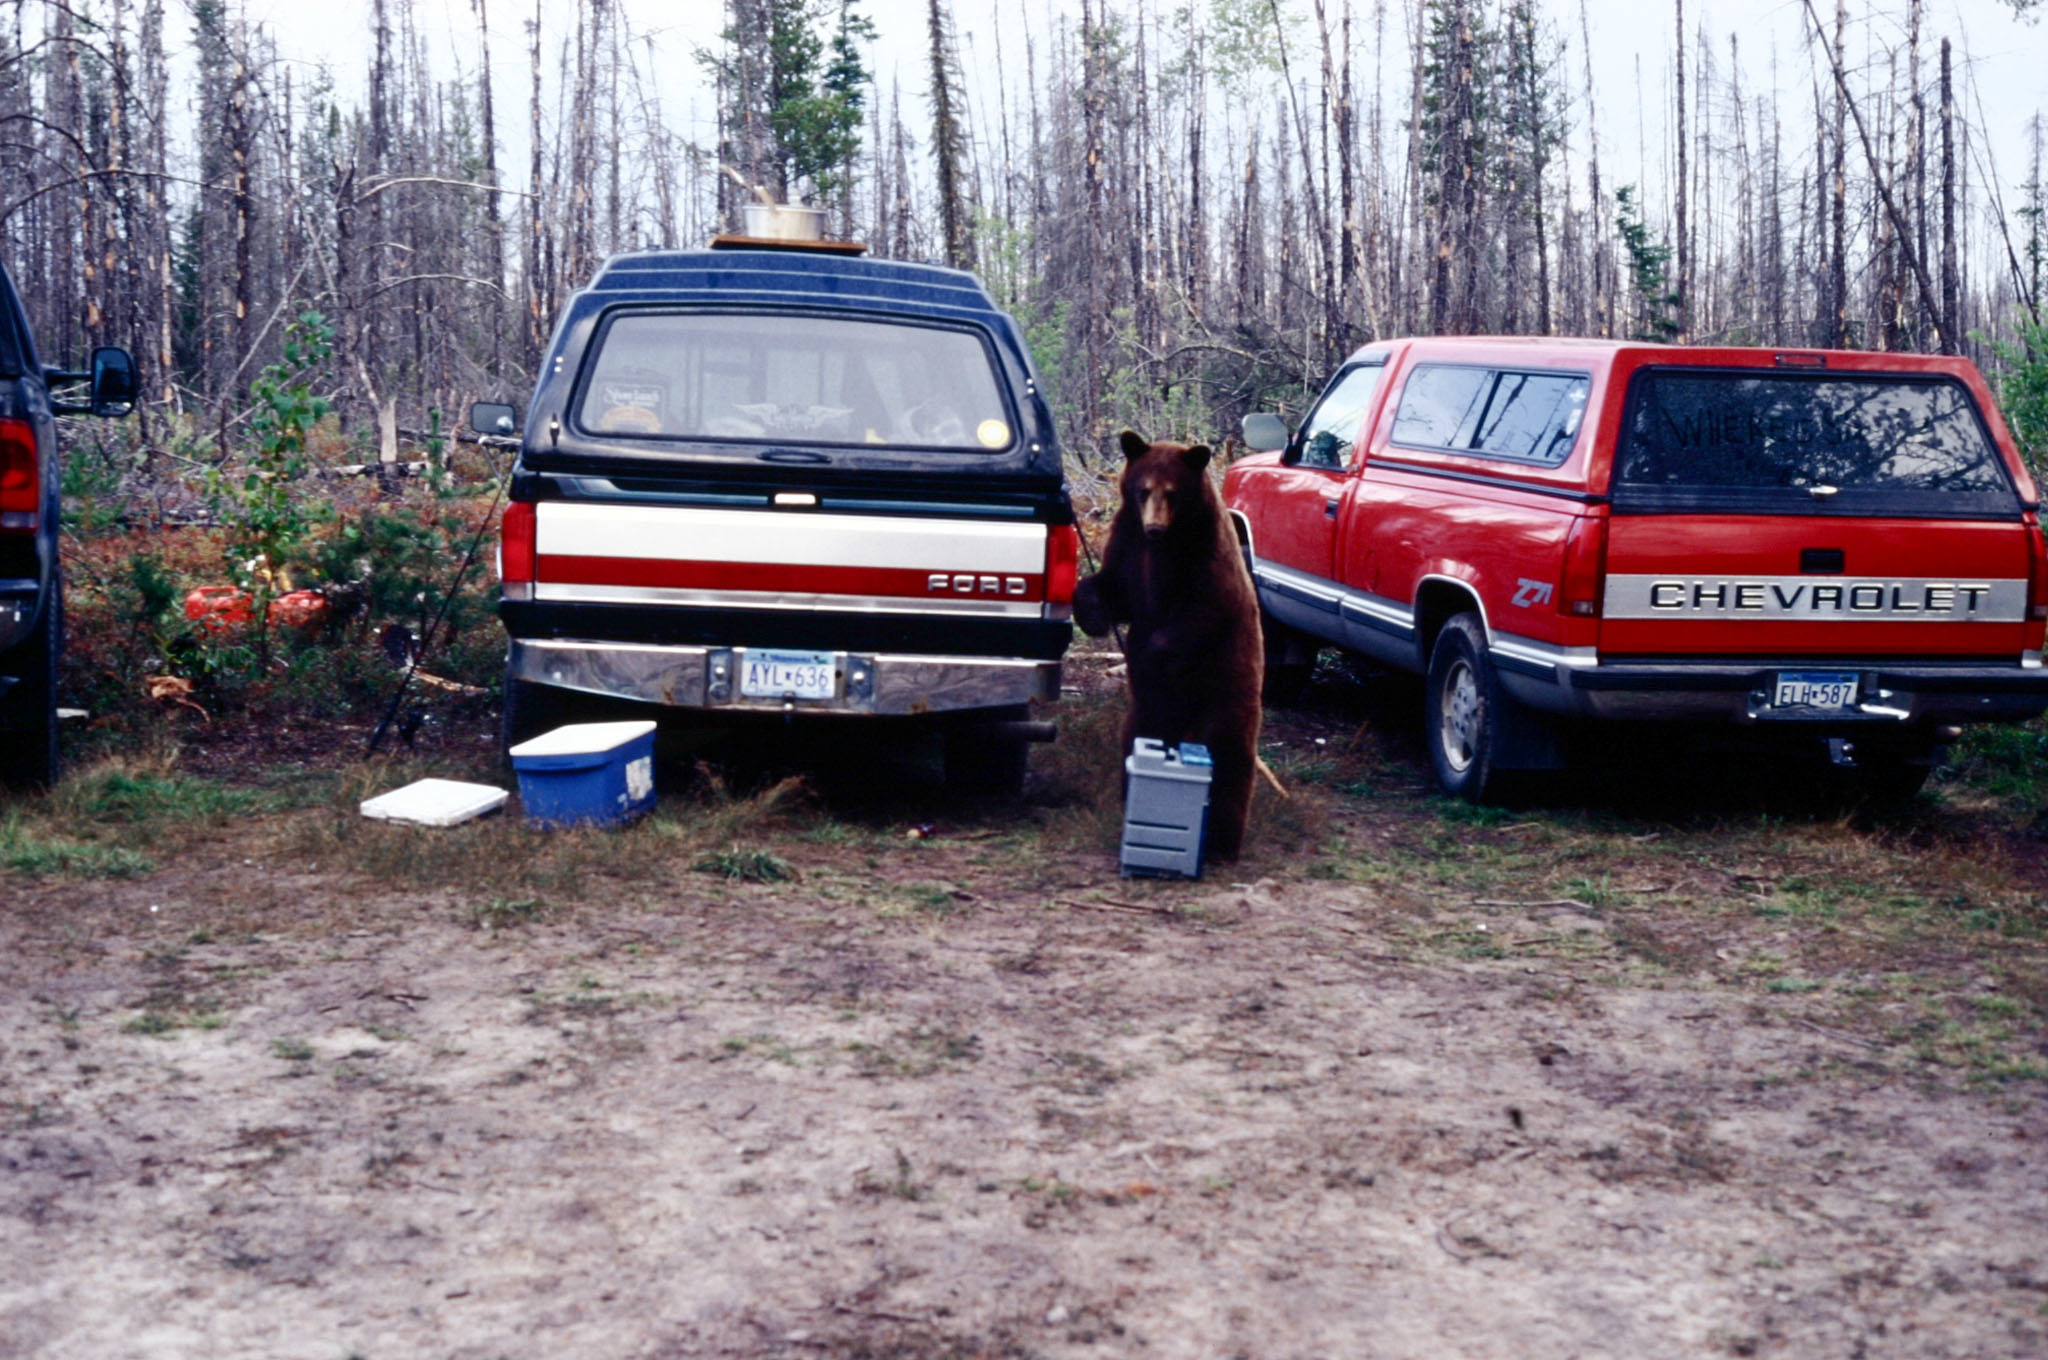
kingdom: Animalia
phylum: Chordata
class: Mammalia
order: Carnivora
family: Ursidae
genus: Ursus
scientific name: Ursus americanus
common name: American black bear
